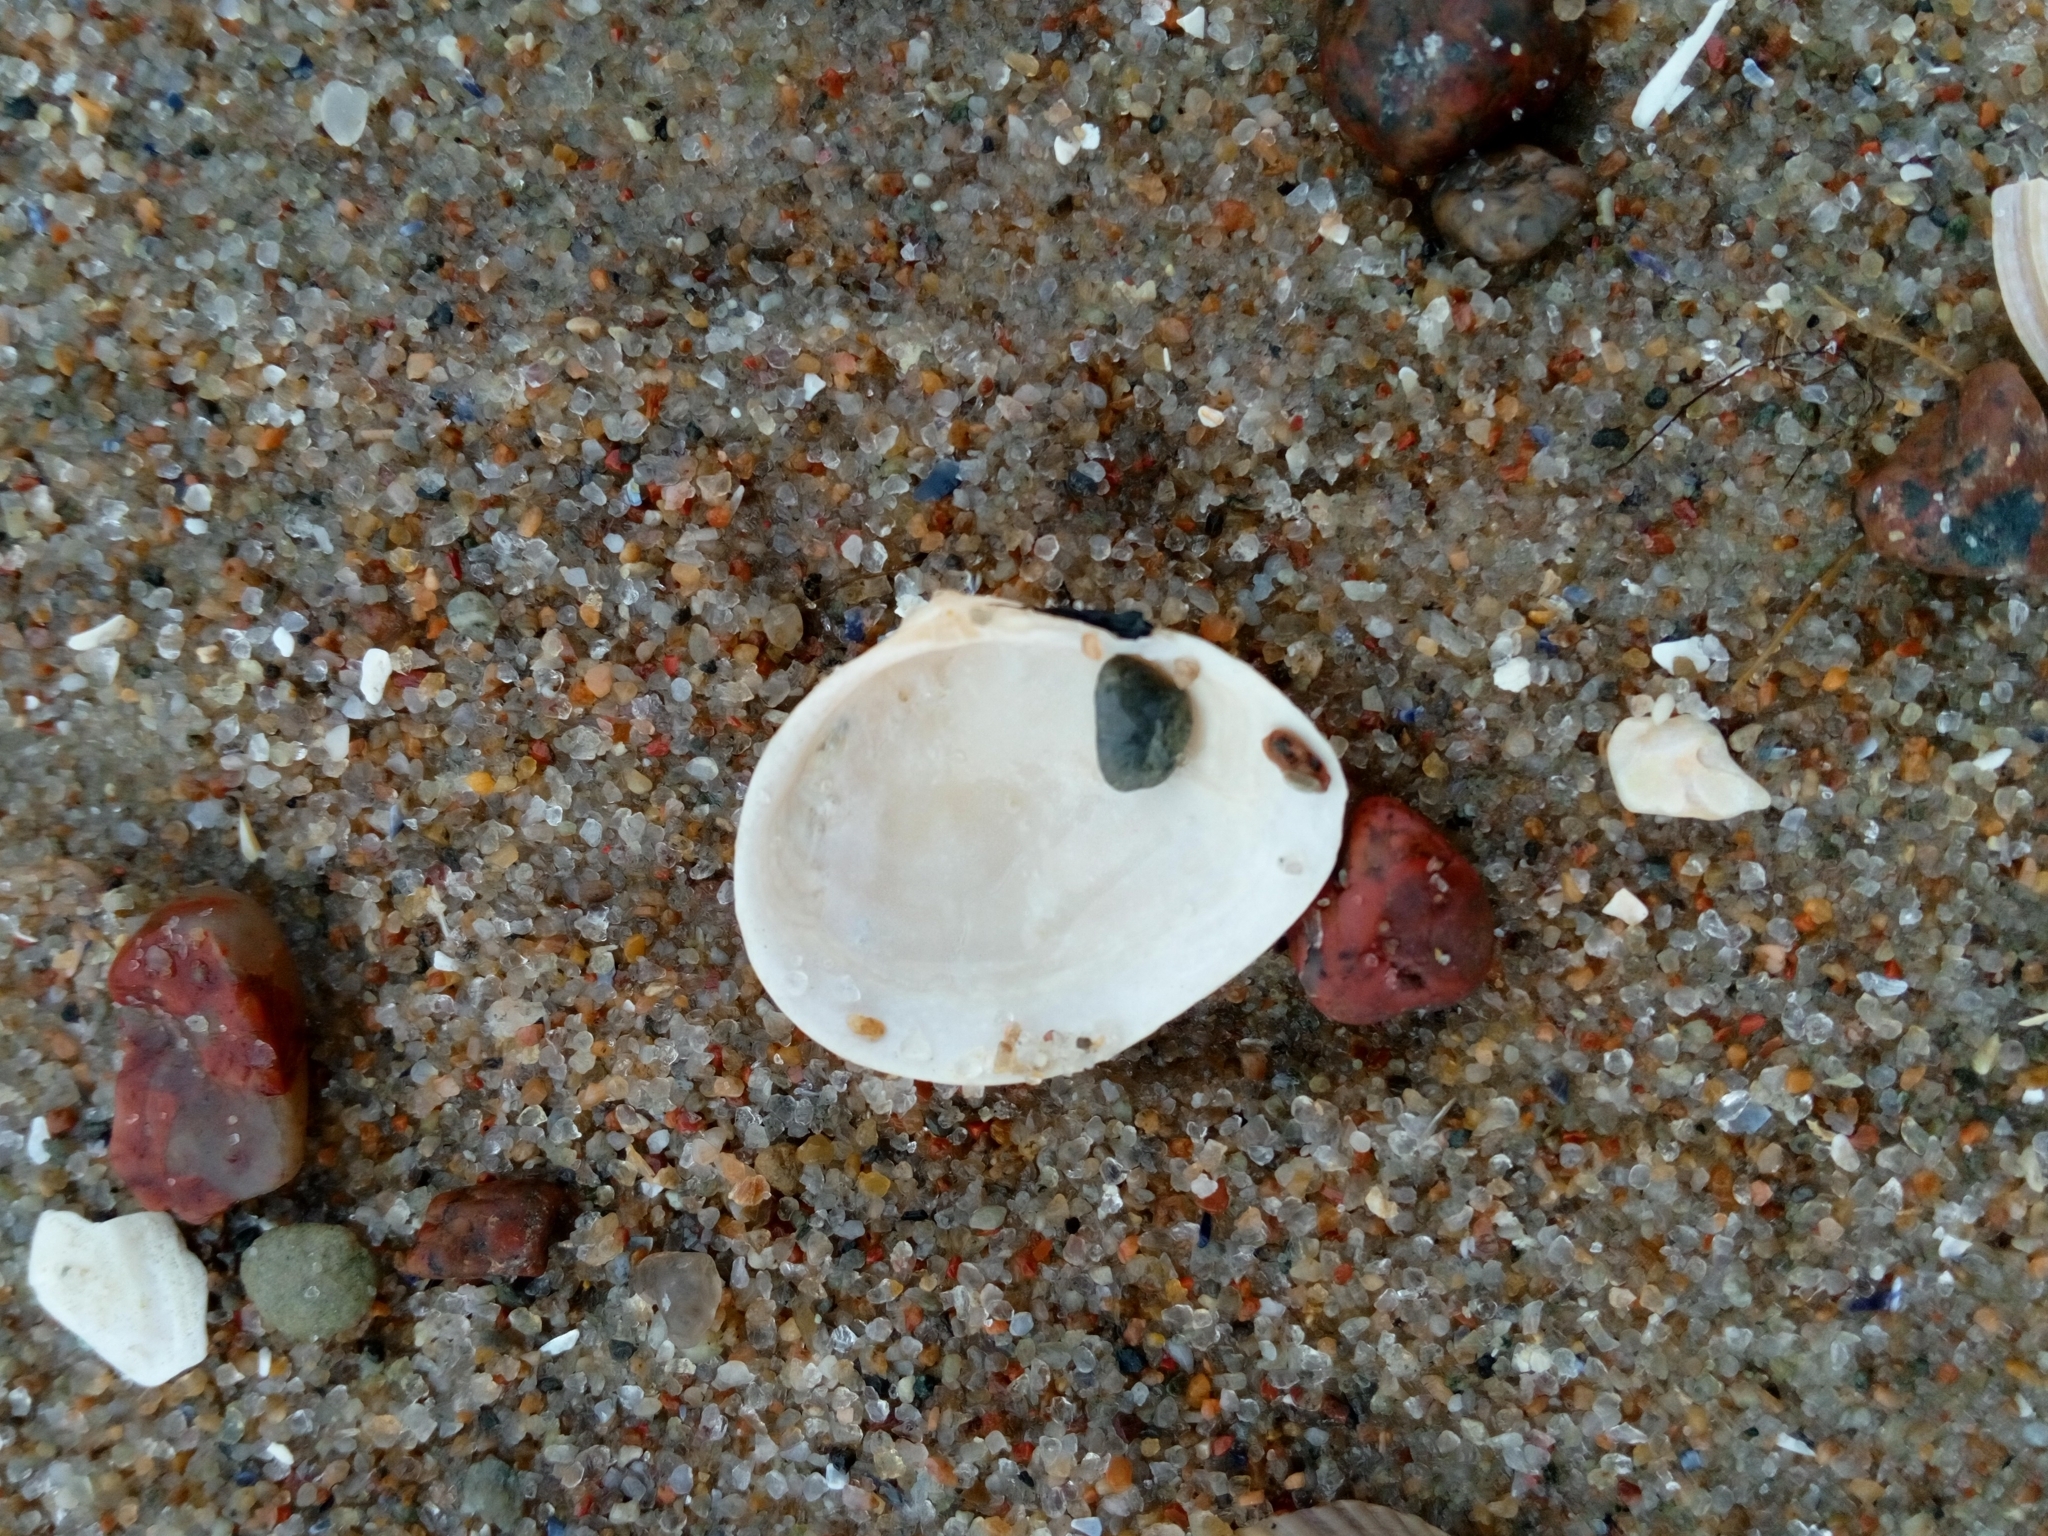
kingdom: Animalia
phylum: Mollusca
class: Bivalvia
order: Cardiida
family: Tellinidae
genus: Macoma
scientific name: Macoma balthica
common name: Baltic tellin
